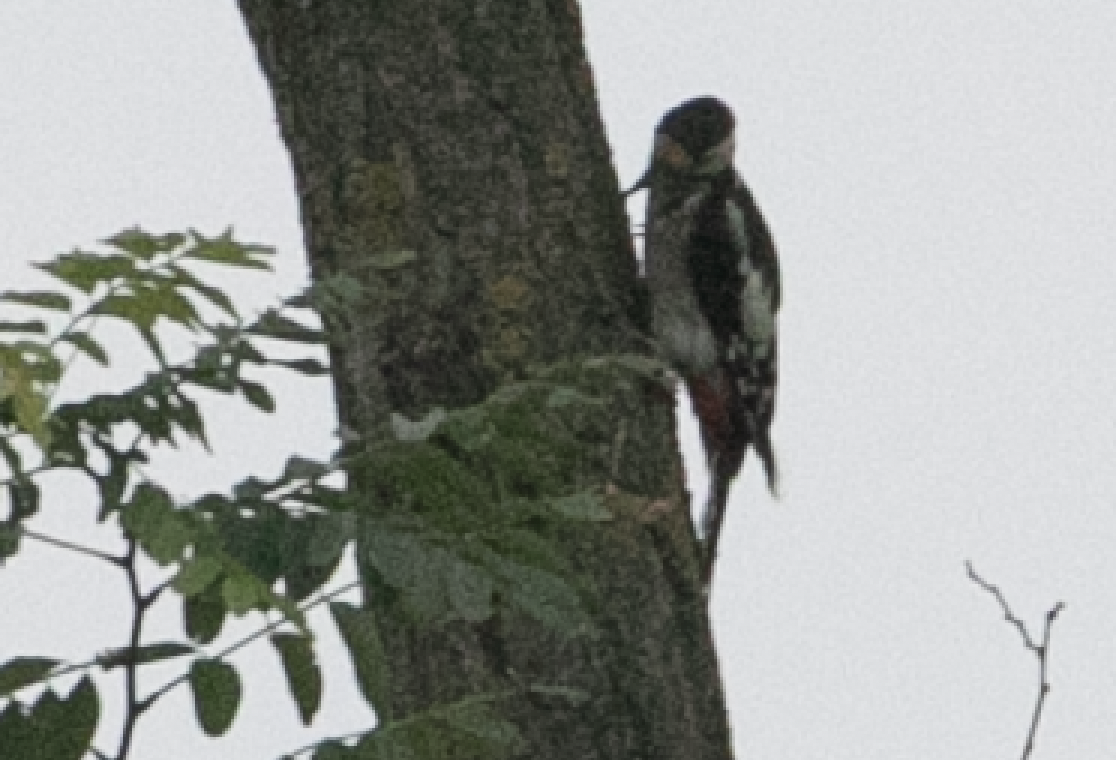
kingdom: Animalia
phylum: Chordata
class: Aves
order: Piciformes
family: Picidae
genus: Dendrocopos
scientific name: Dendrocopos major
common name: Great spotted woodpecker
